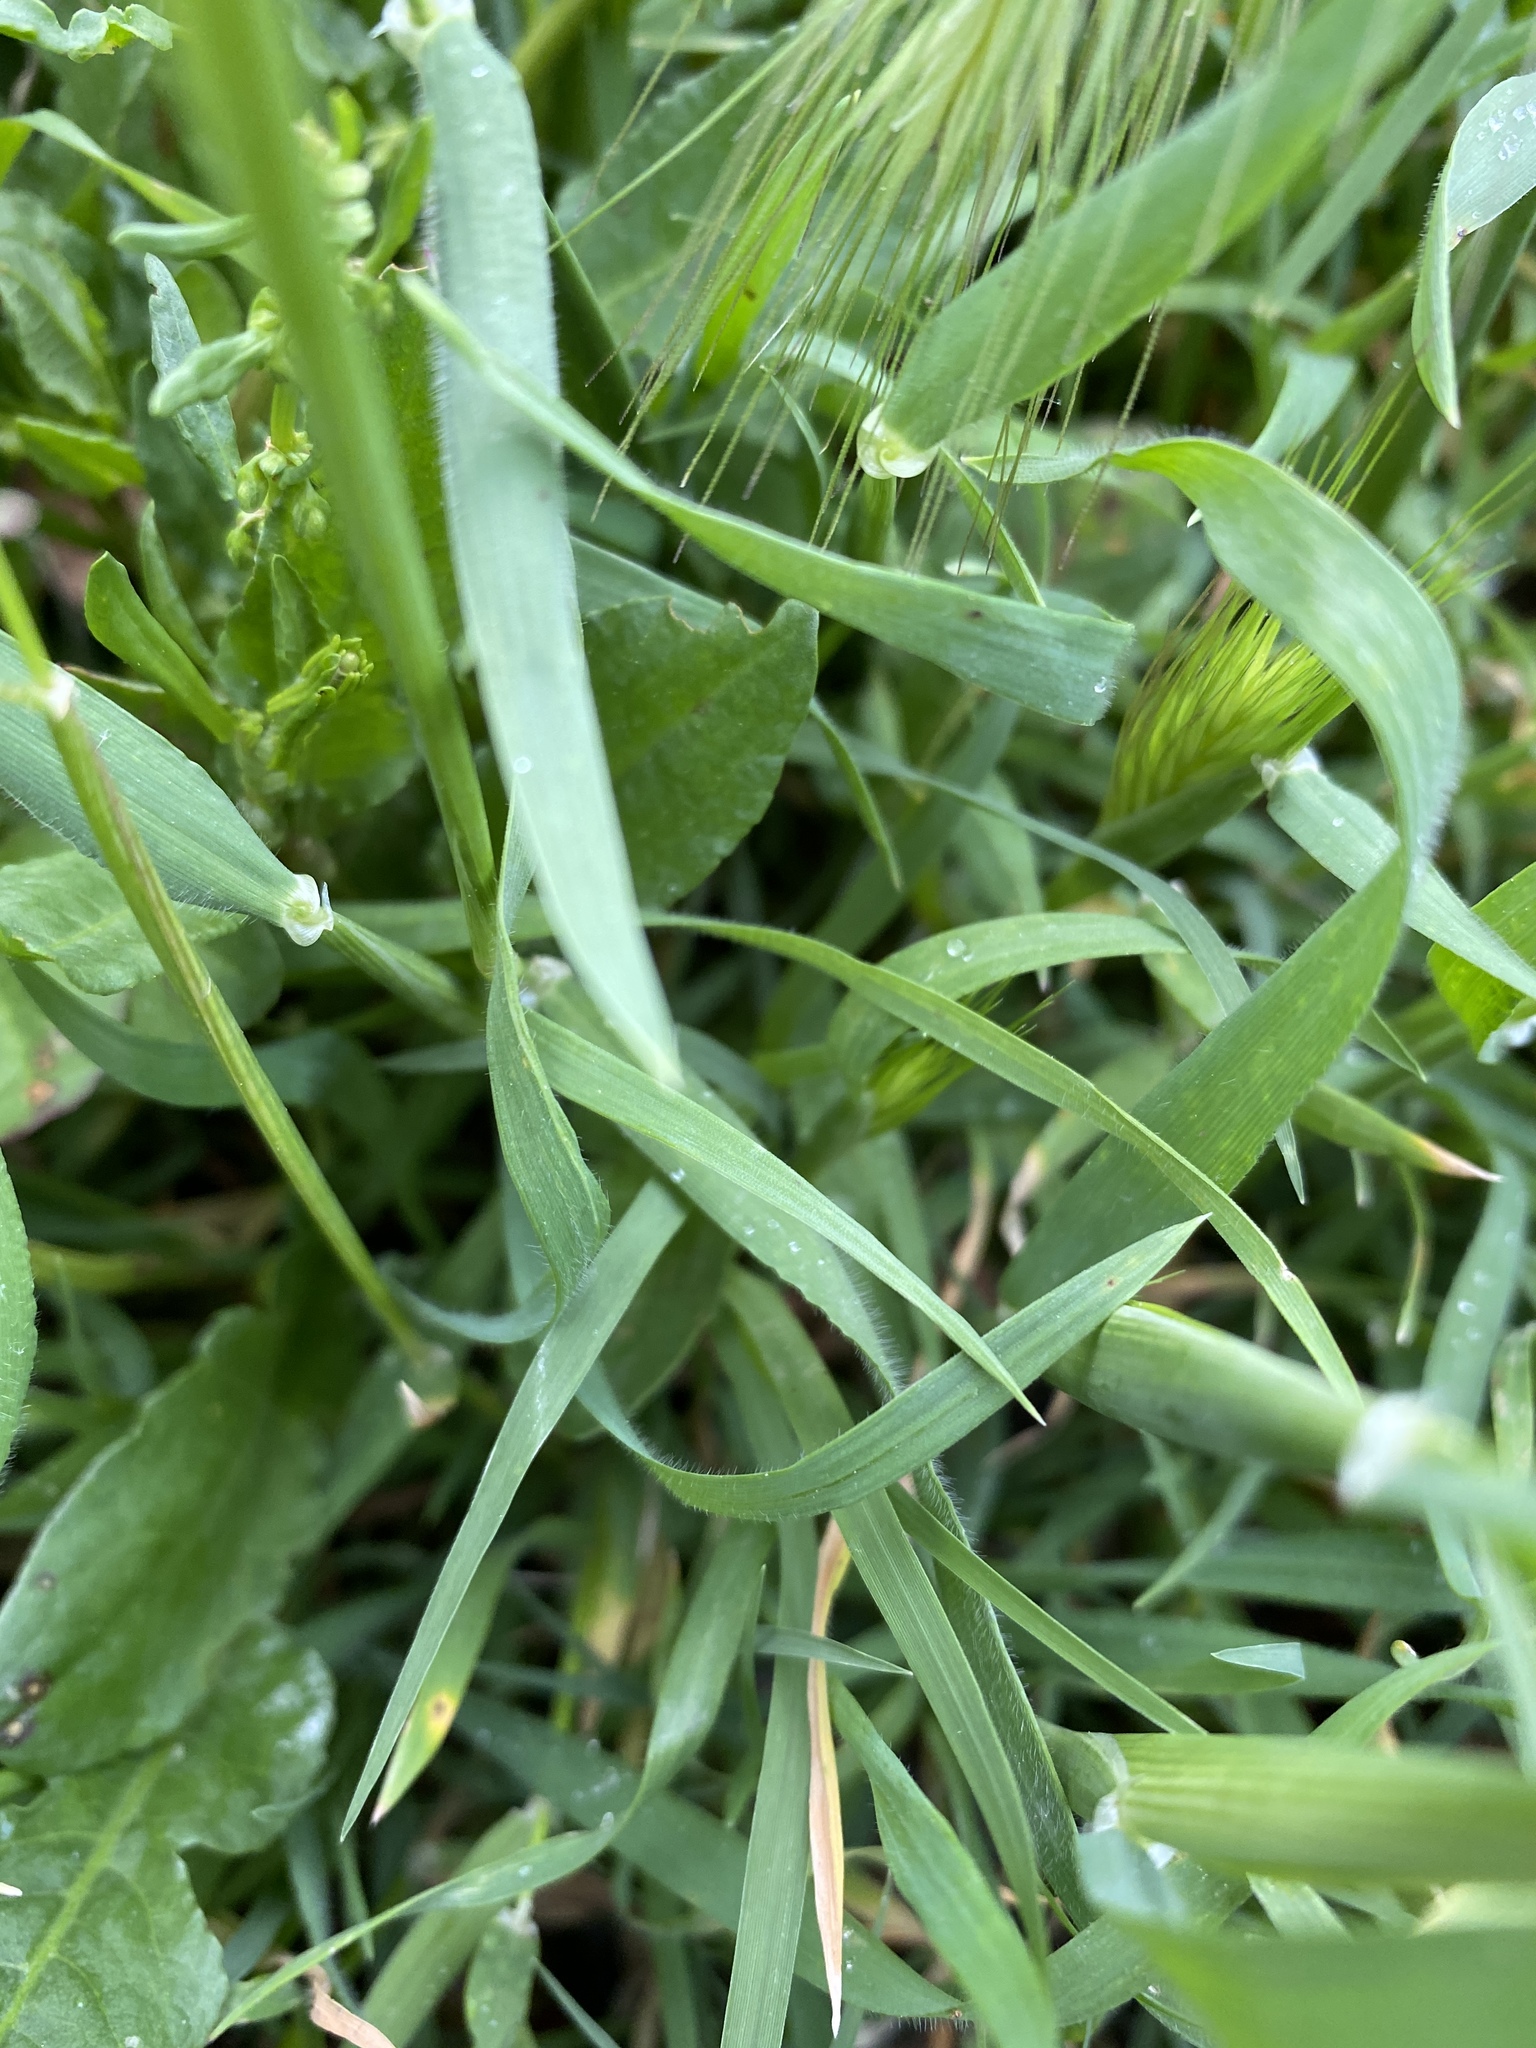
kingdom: Plantae
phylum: Tracheophyta
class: Liliopsida
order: Poales
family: Poaceae
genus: Hordeum
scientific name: Hordeum murinum
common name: Wall barley
